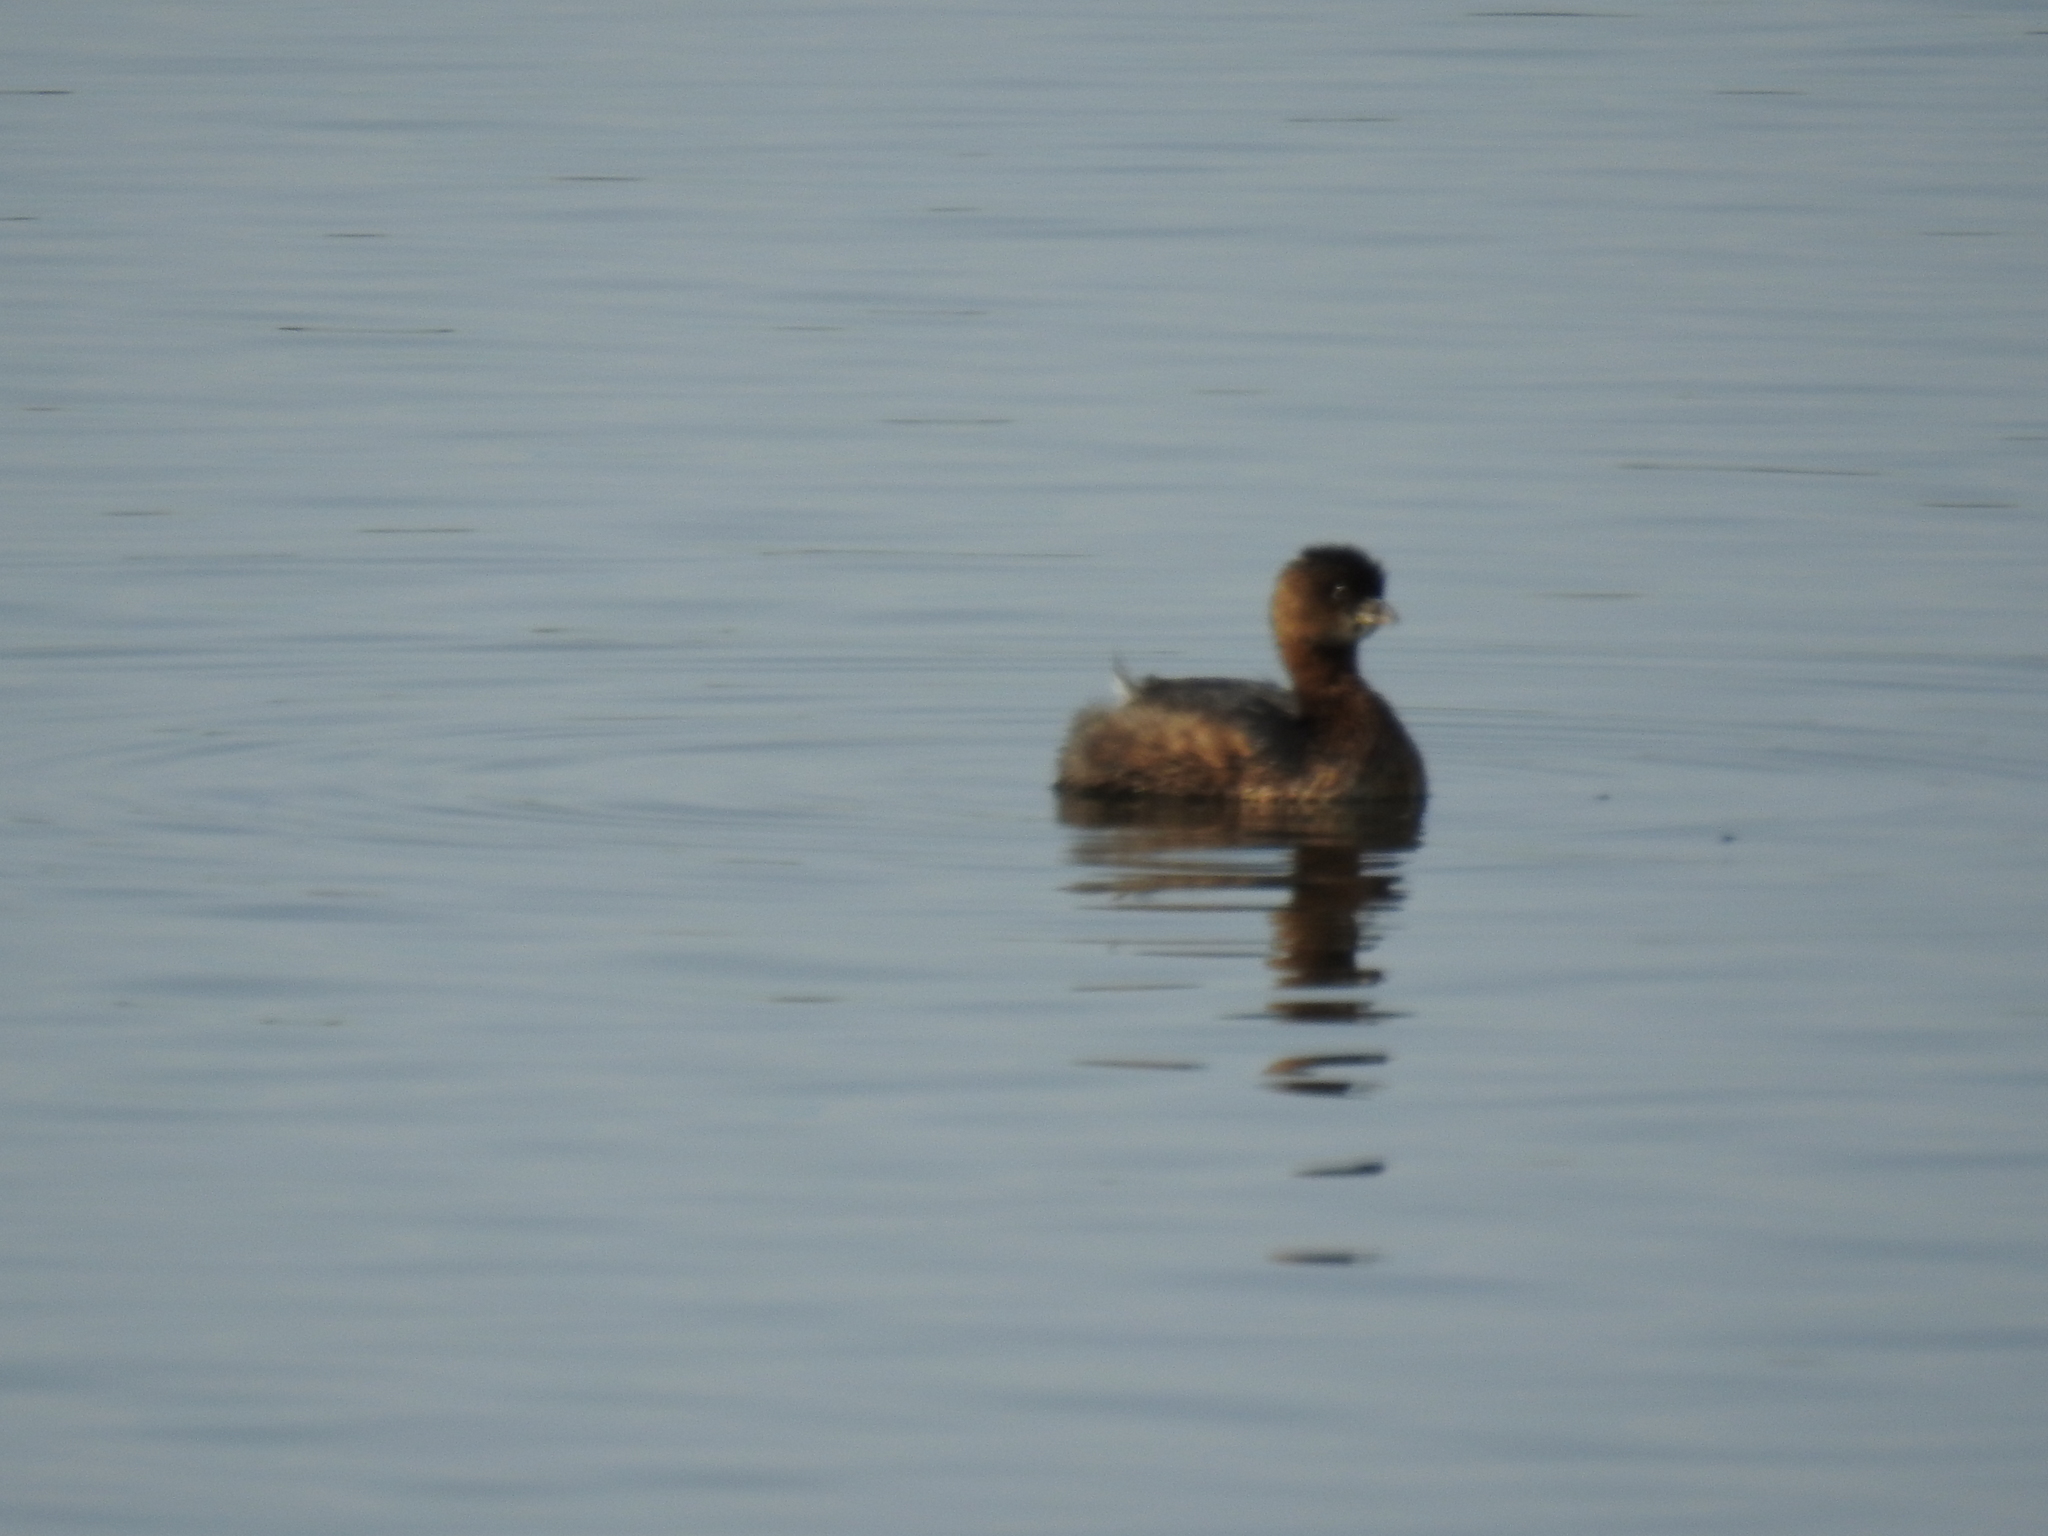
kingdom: Animalia
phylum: Chordata
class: Aves
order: Podicipediformes
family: Podicipedidae
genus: Podilymbus
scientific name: Podilymbus podiceps
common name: Pied-billed grebe
